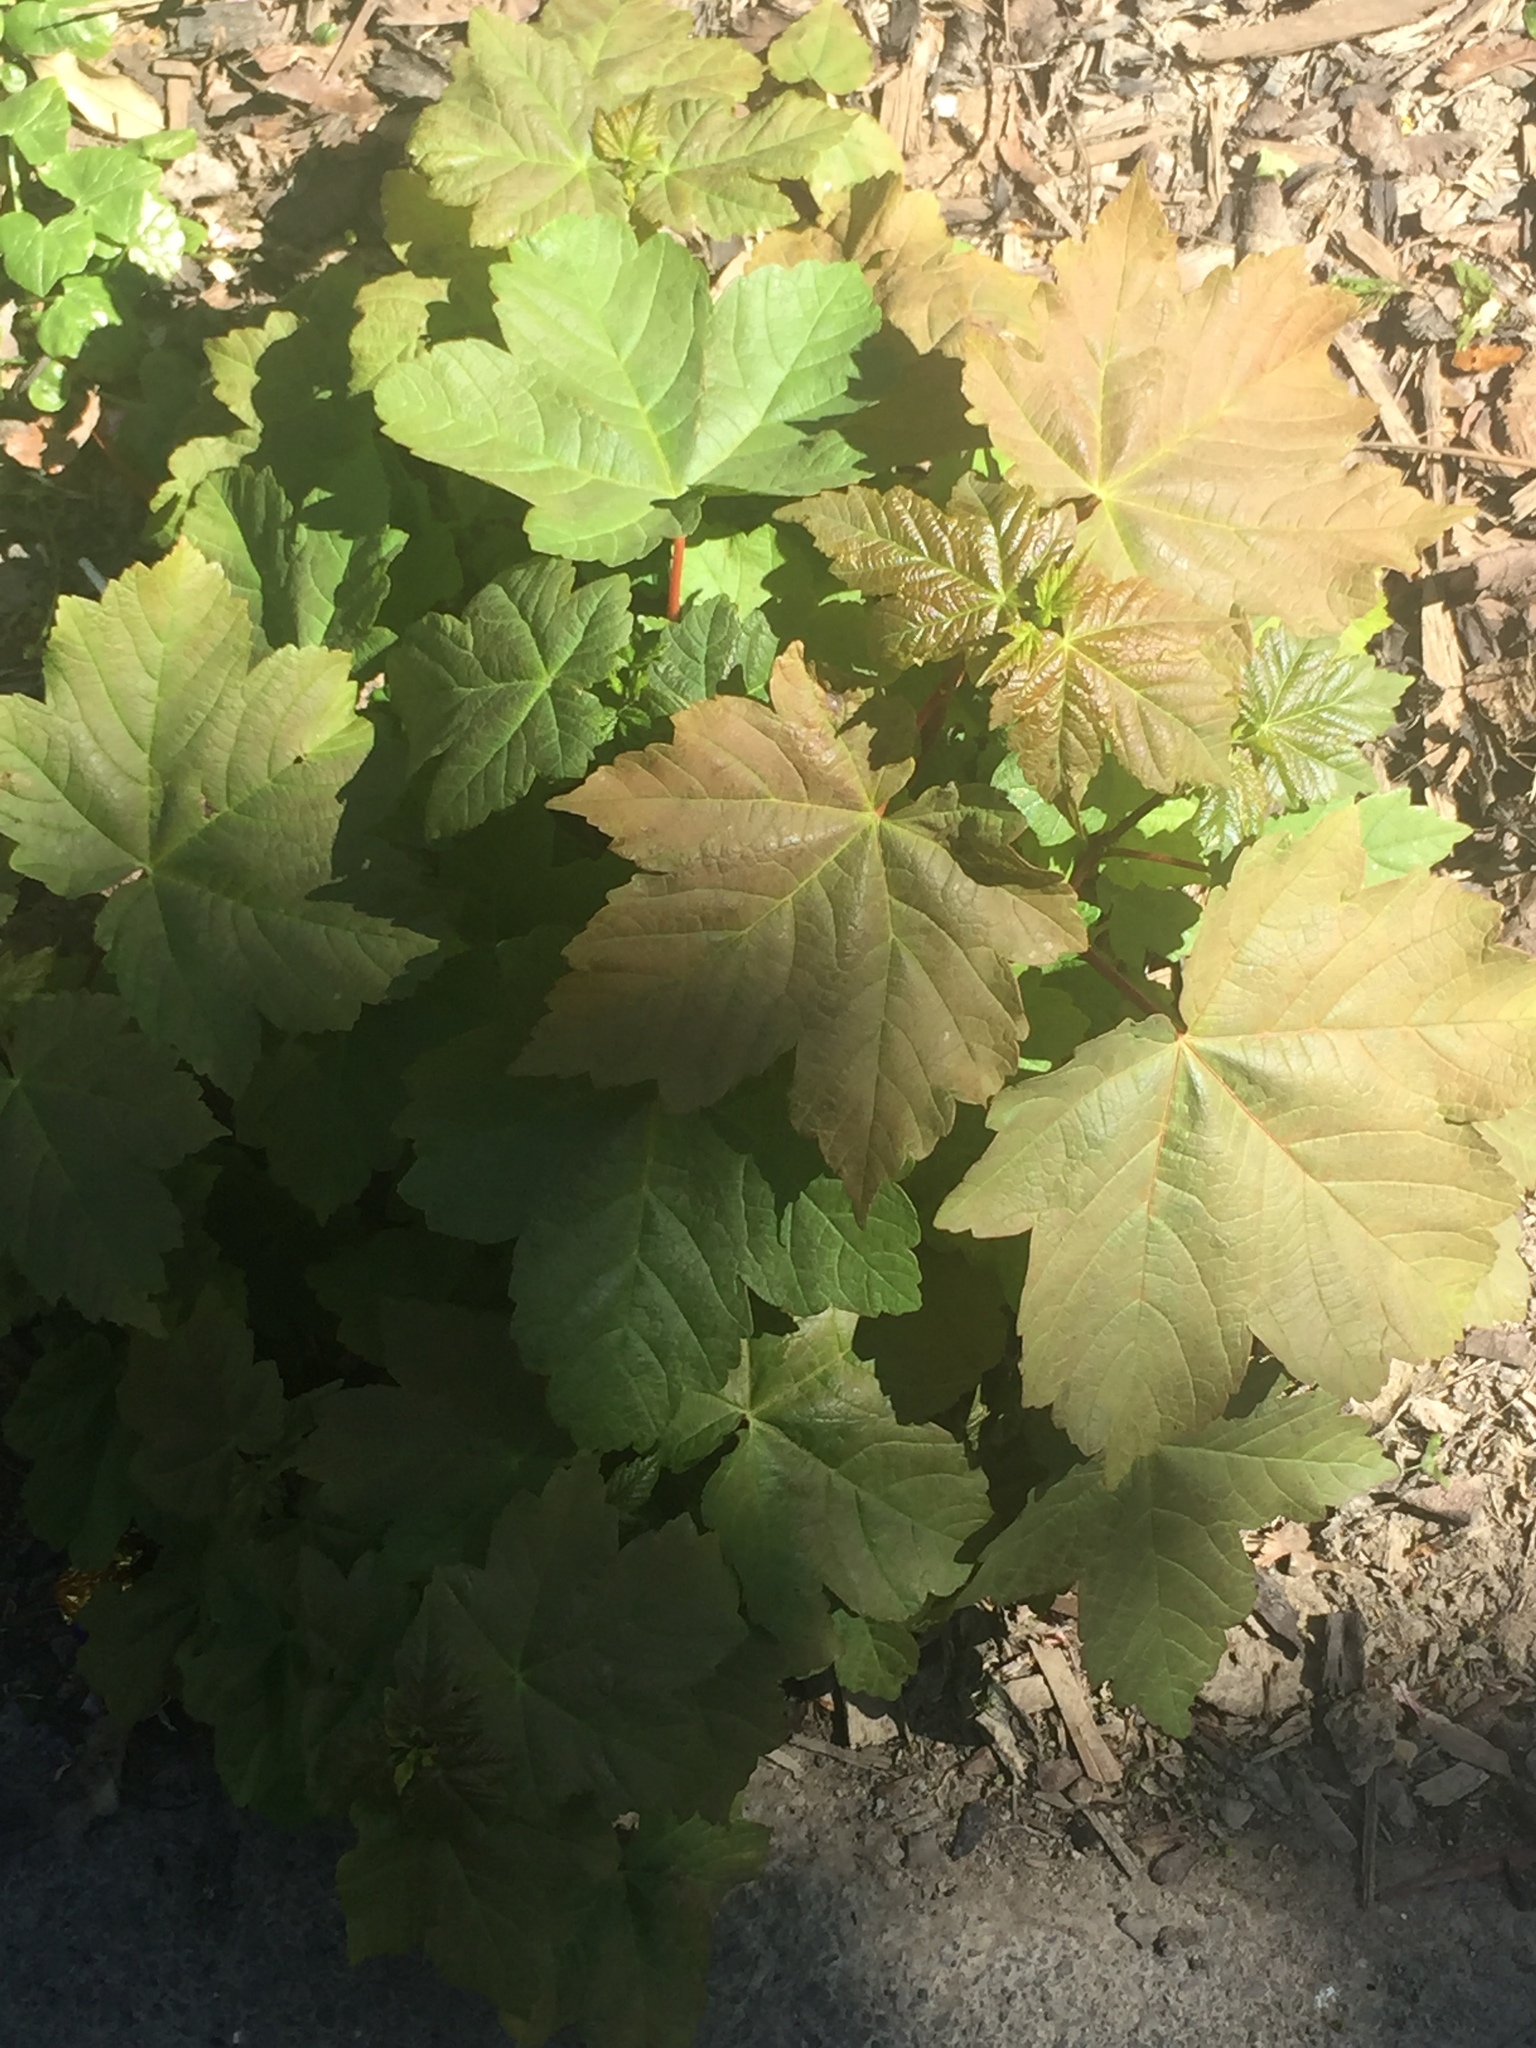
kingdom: Plantae
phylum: Tracheophyta
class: Magnoliopsida
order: Sapindales
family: Sapindaceae
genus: Acer
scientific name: Acer pseudoplatanus
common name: Sycamore
